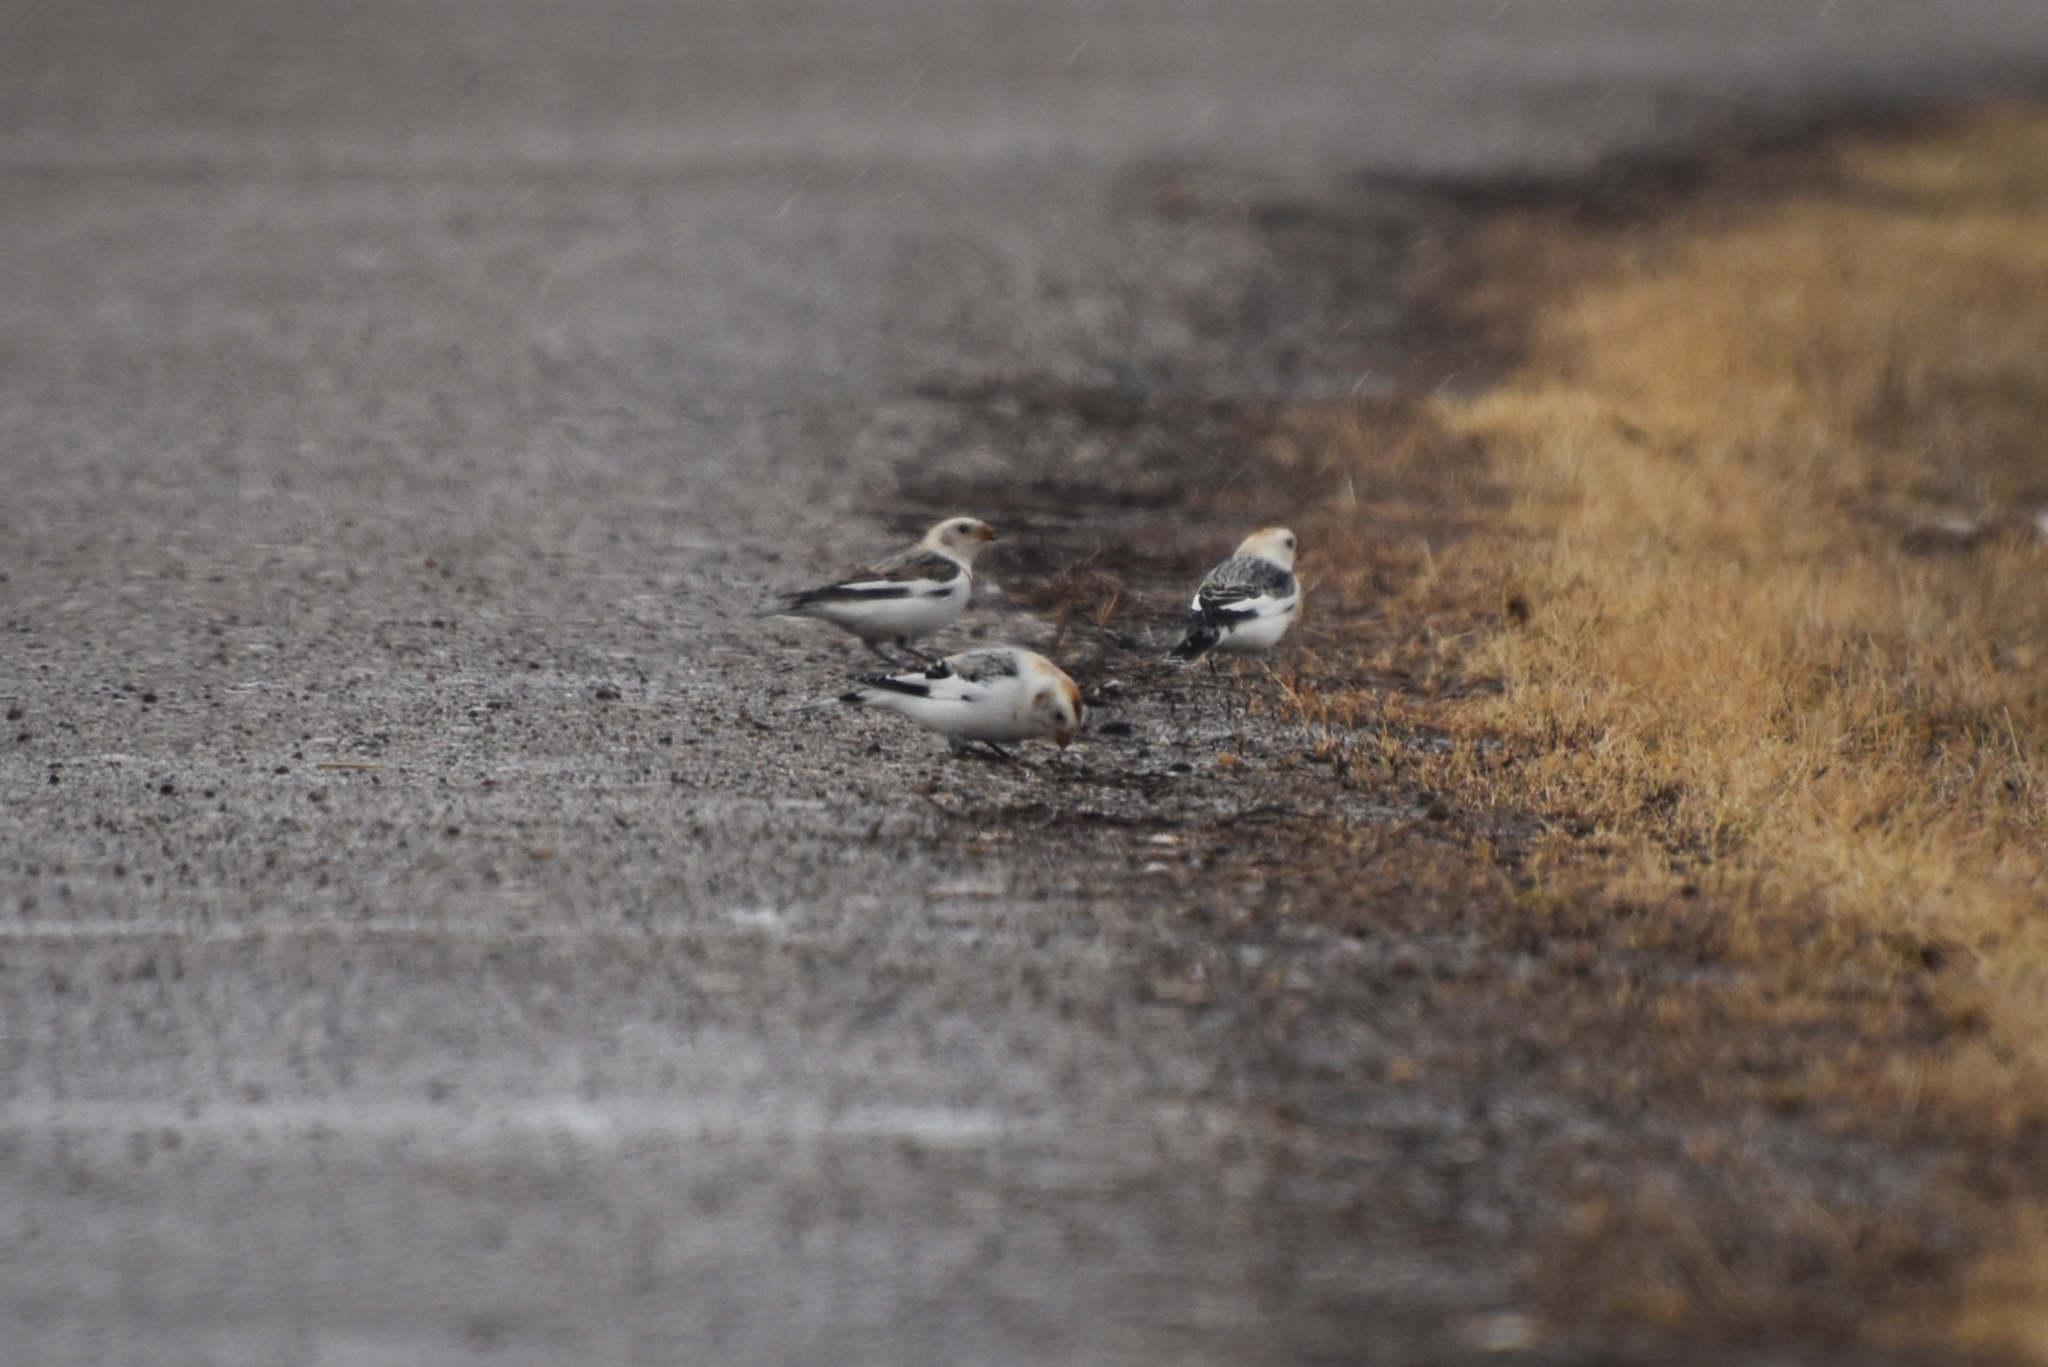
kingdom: Animalia
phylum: Chordata
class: Aves
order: Passeriformes
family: Calcariidae
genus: Plectrophenax
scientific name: Plectrophenax nivalis
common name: Snow bunting
